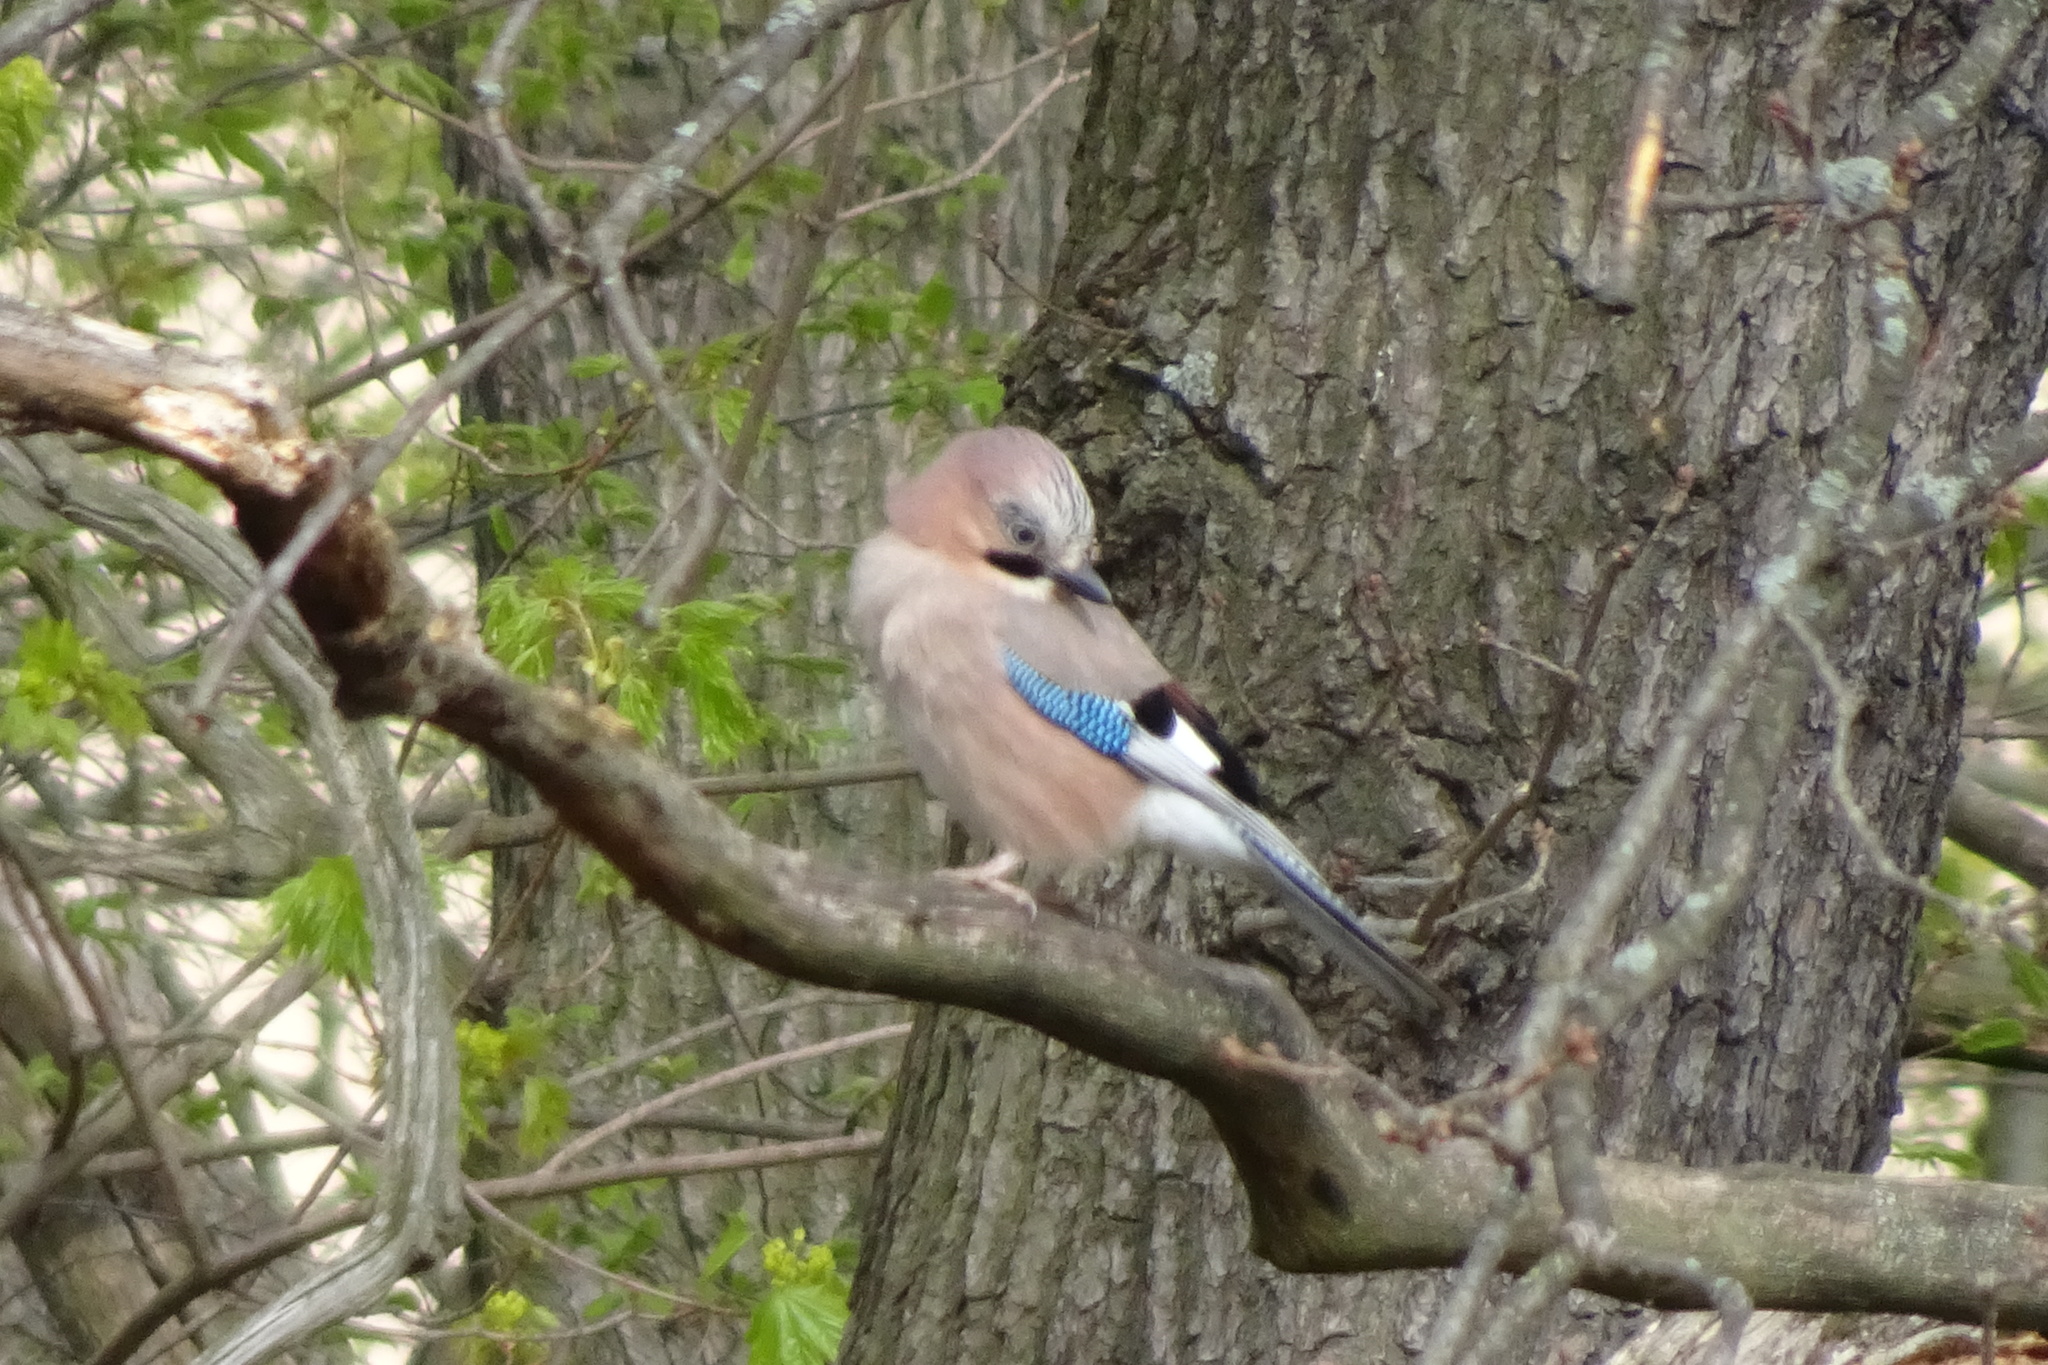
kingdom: Animalia
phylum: Chordata
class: Aves
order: Passeriformes
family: Corvidae
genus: Garrulus
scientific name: Garrulus glandarius
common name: Eurasian jay
